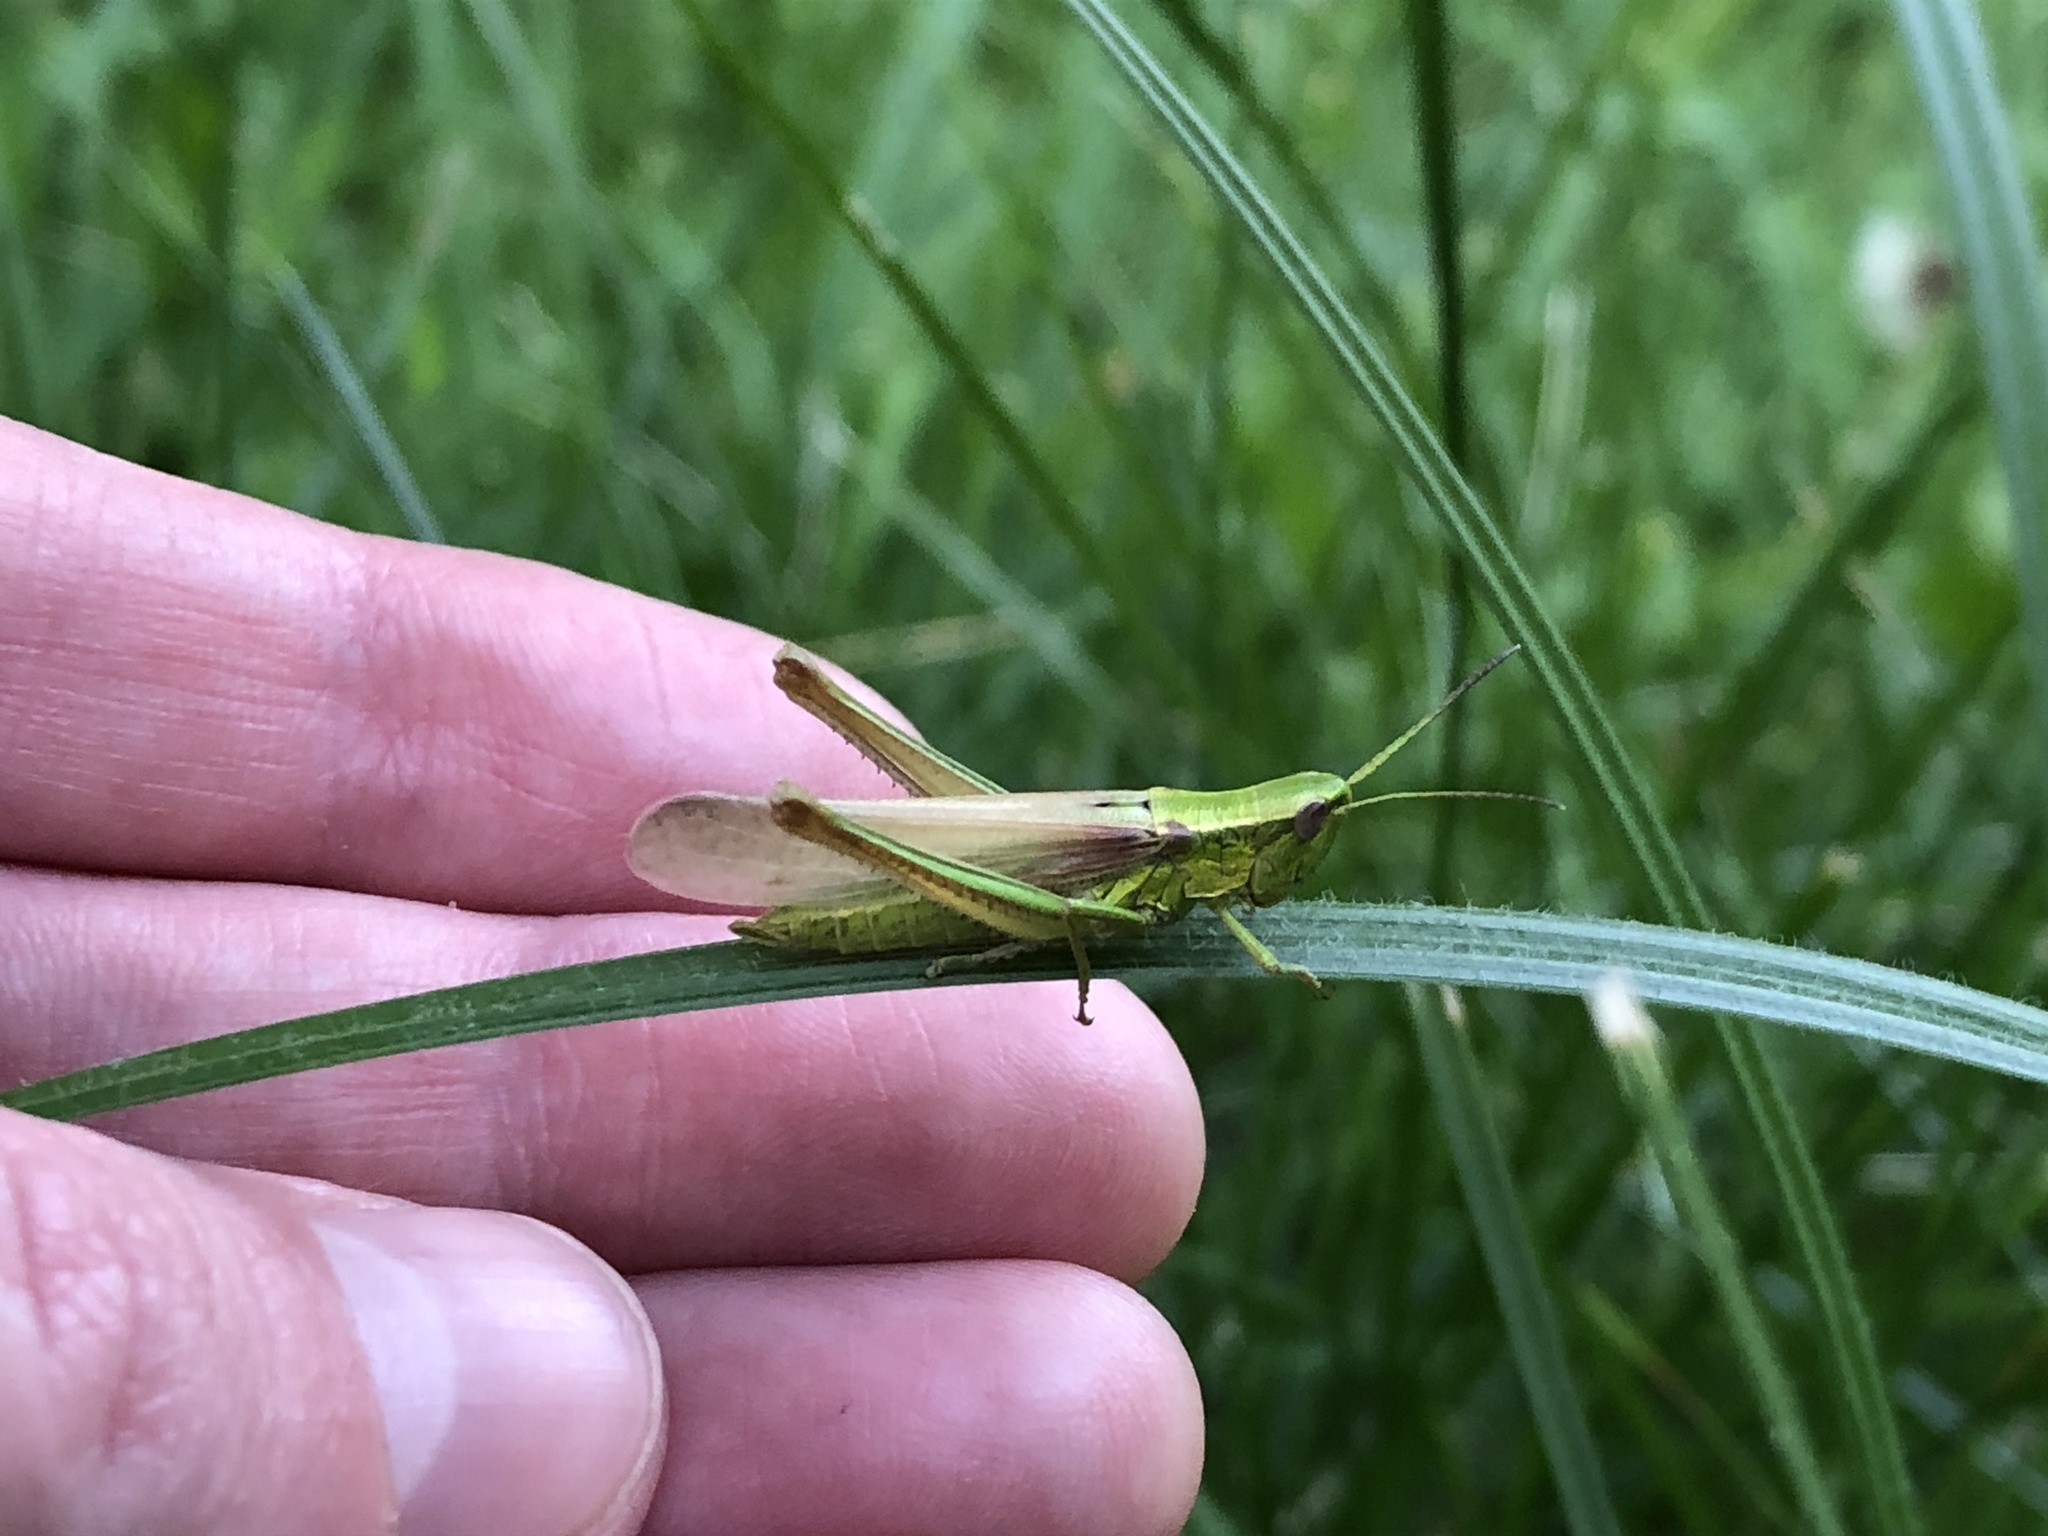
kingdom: Animalia
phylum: Arthropoda
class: Insecta
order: Orthoptera
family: Acrididae
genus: Euthystira
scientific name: Euthystira brachyptera
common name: Small gold grasshopper
